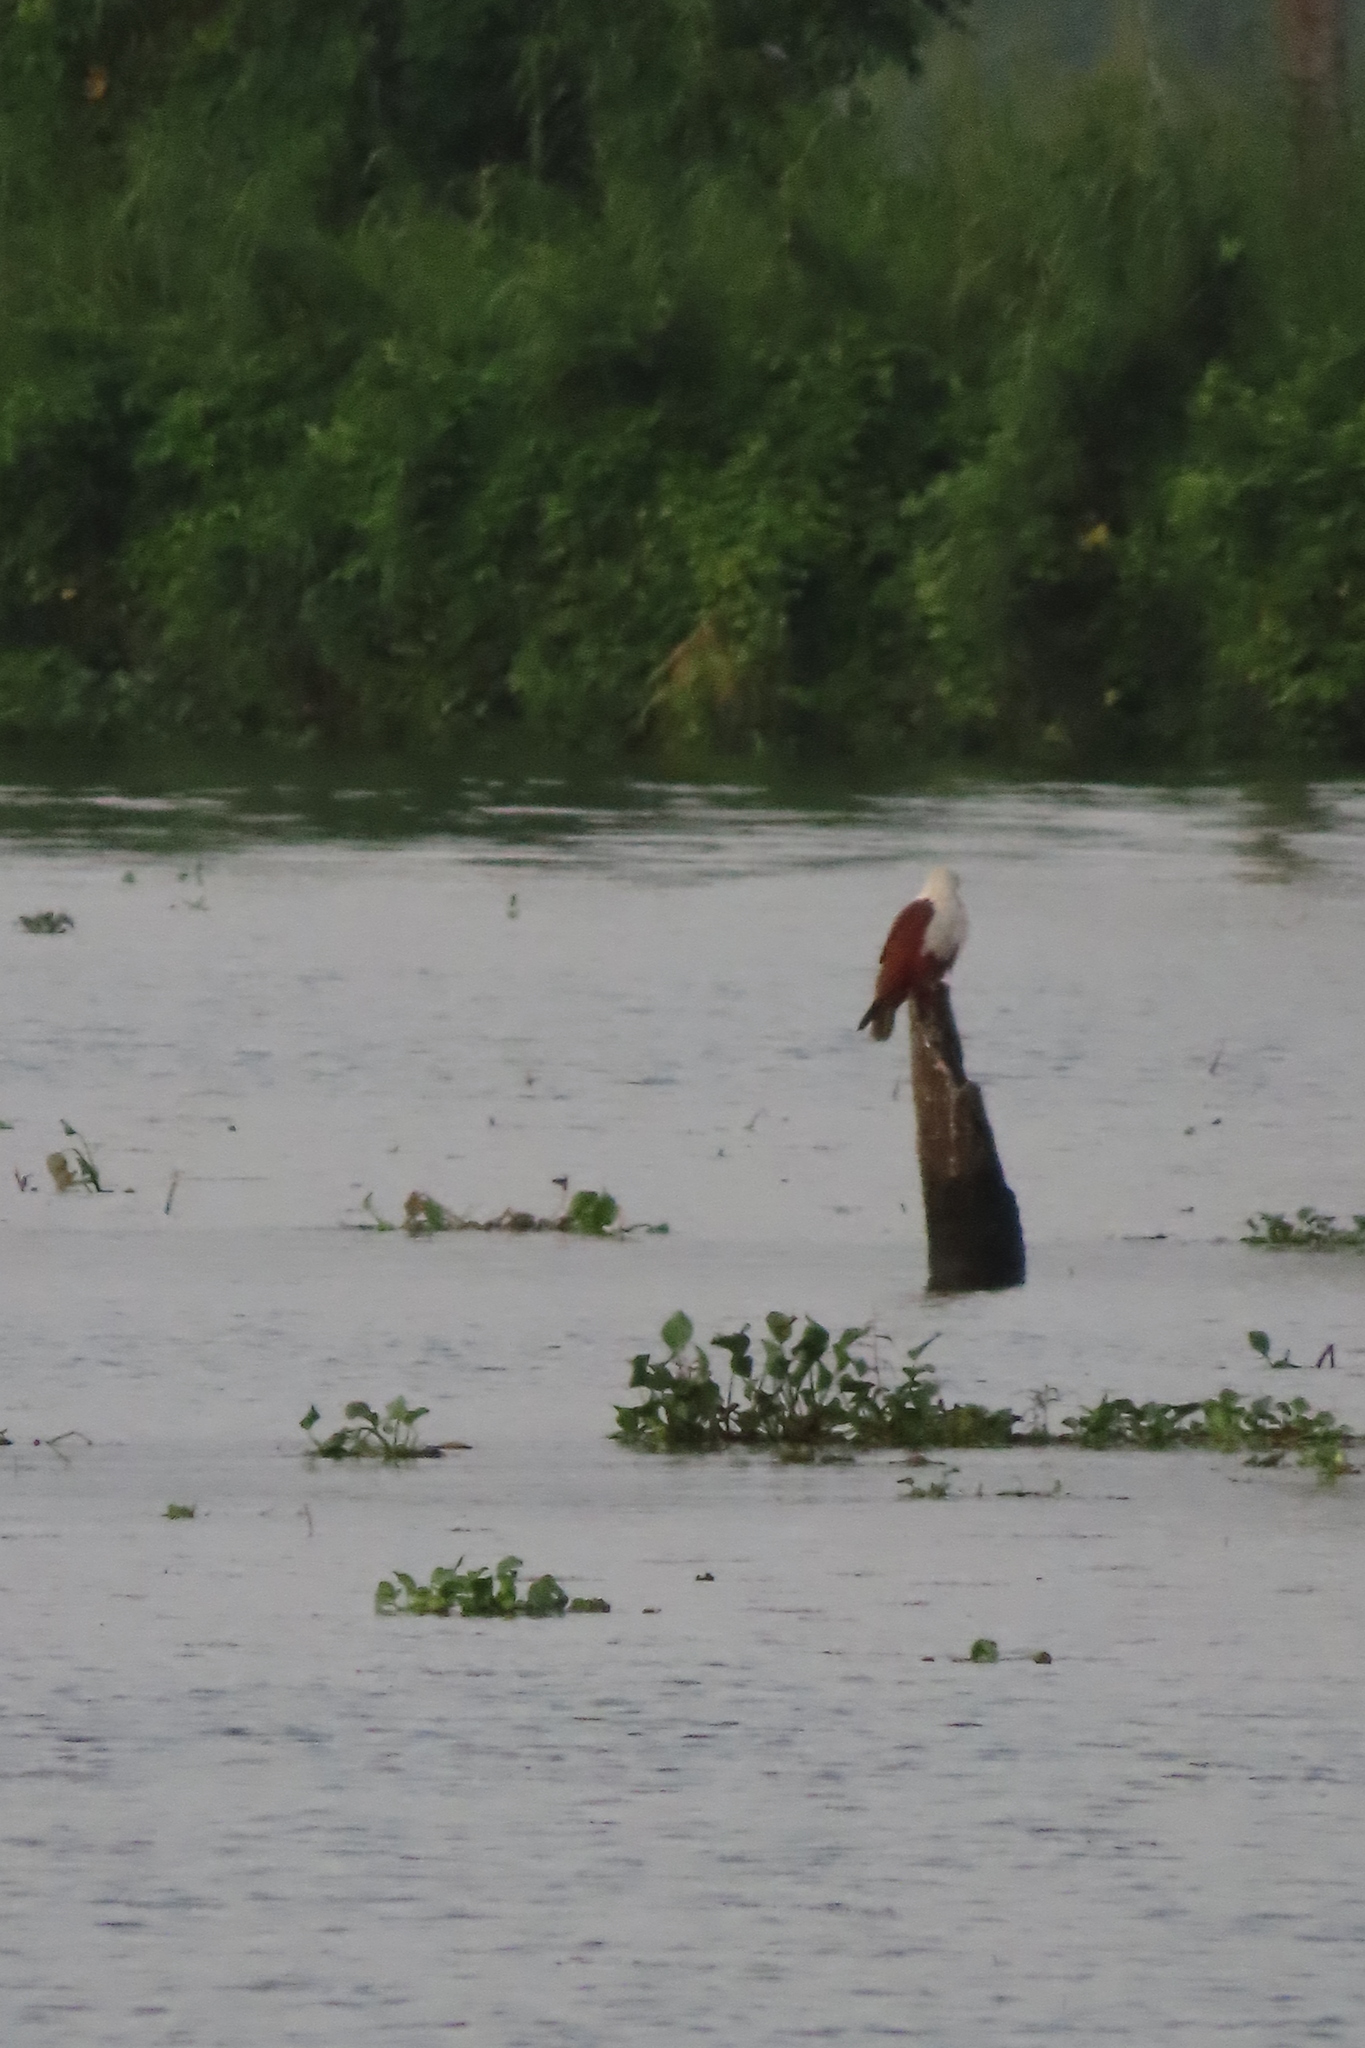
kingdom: Animalia
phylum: Chordata
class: Aves
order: Accipitriformes
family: Accipitridae
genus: Haliastur
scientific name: Haliastur indus
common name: Brahminy kite
